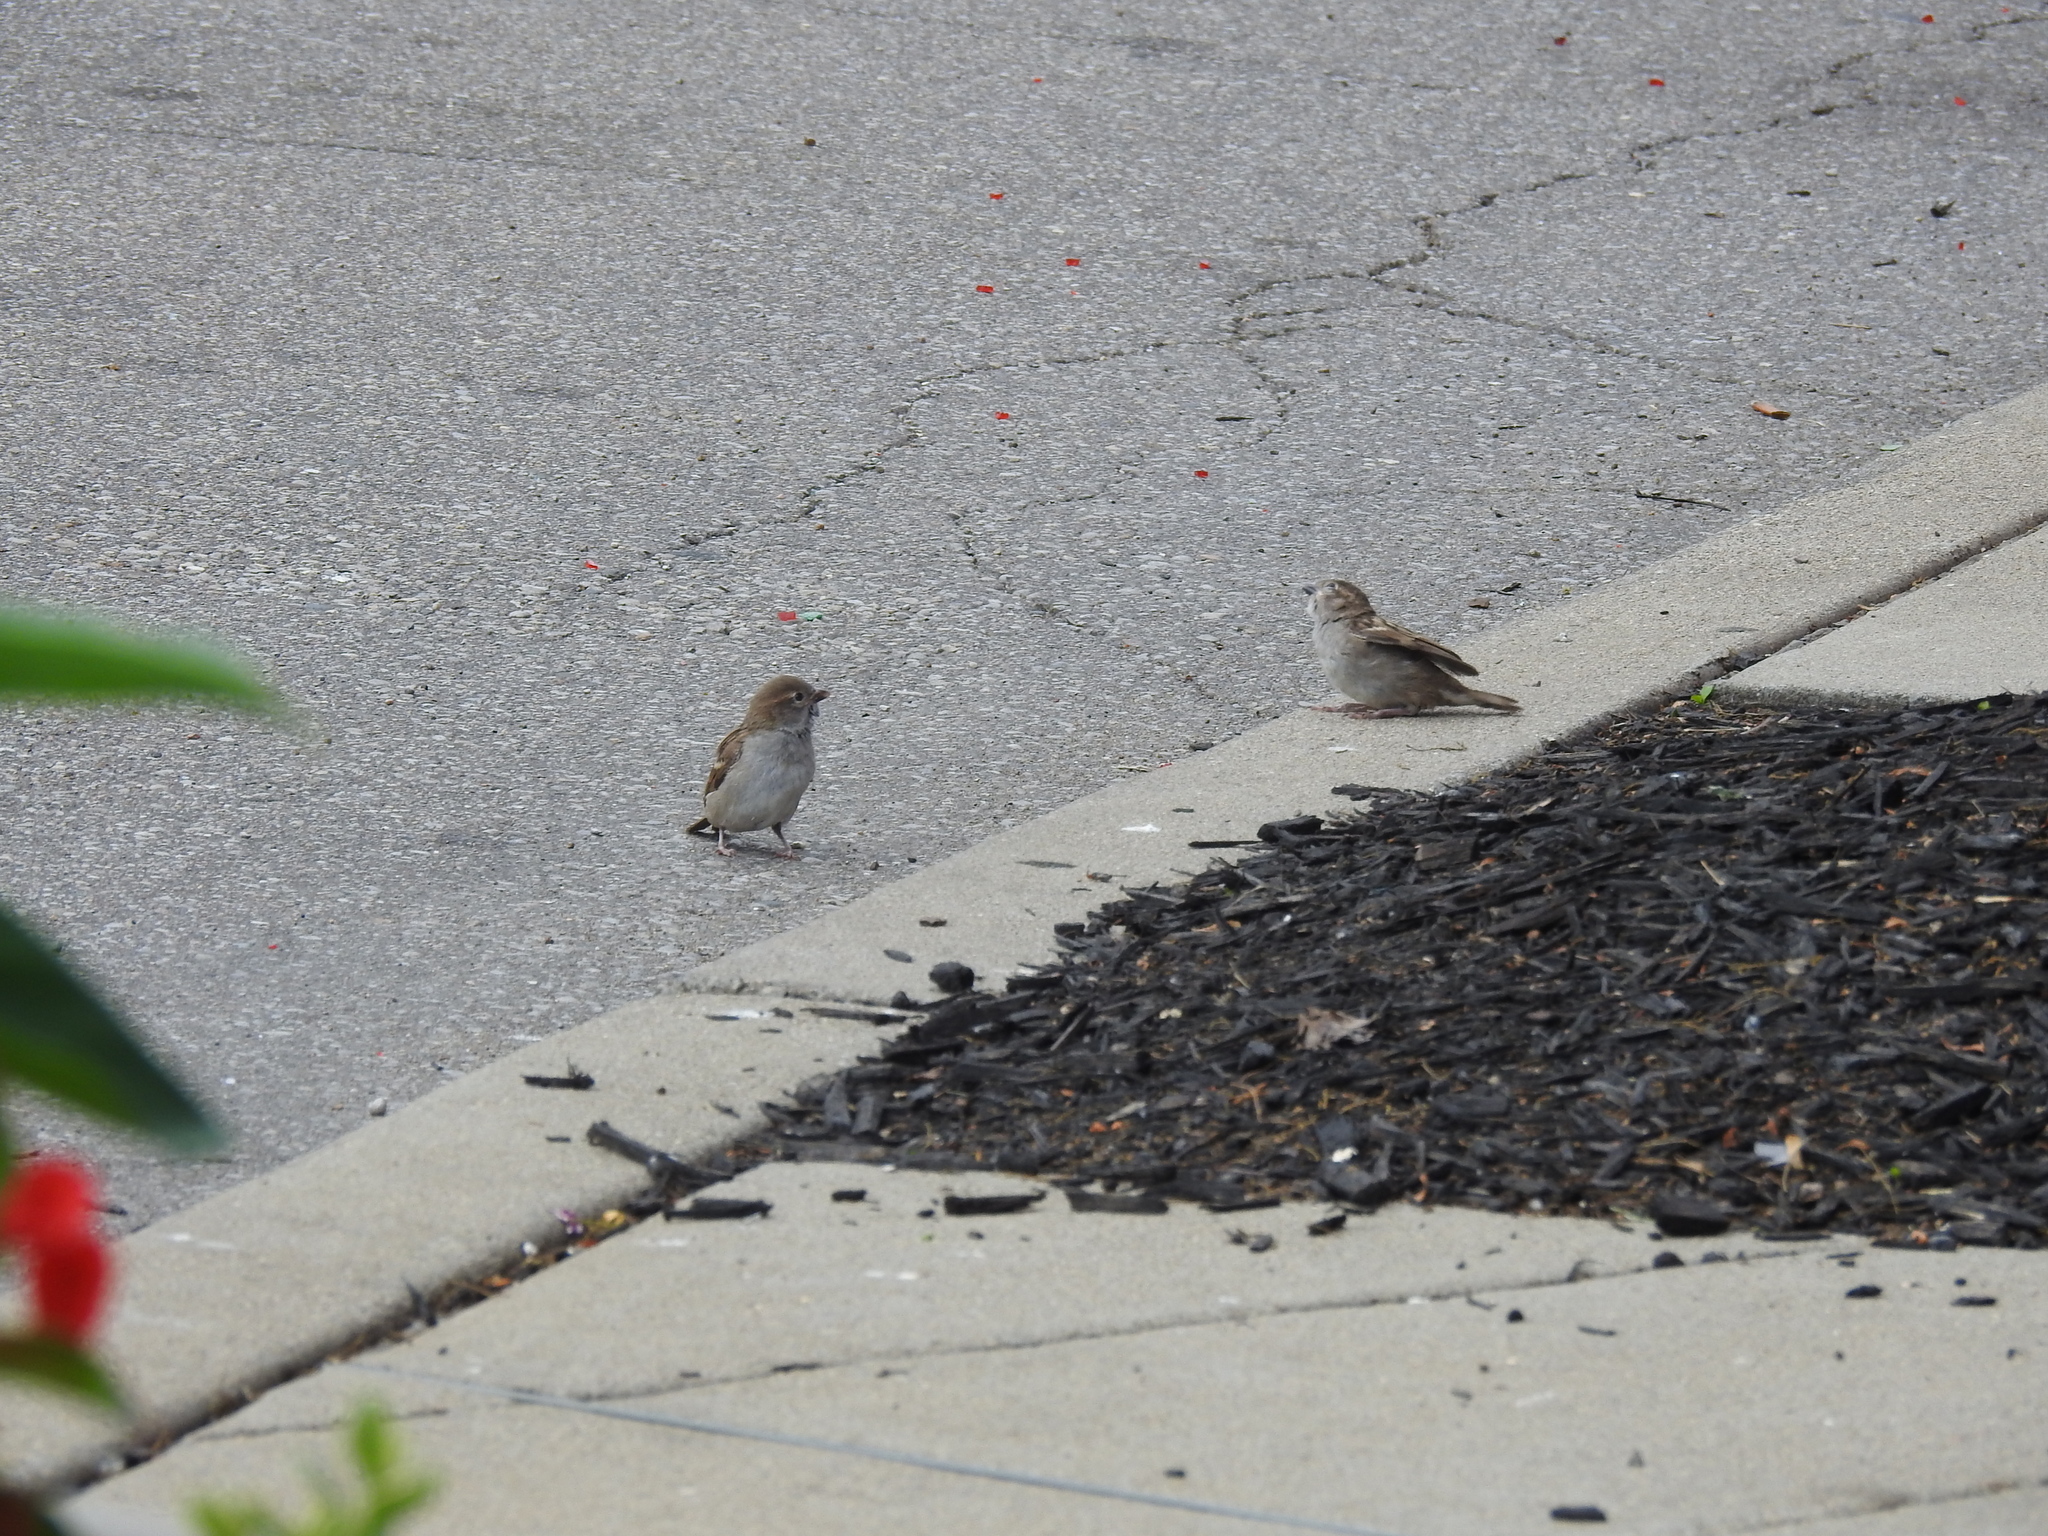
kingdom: Animalia
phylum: Chordata
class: Aves
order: Passeriformes
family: Passeridae
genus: Passer
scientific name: Passer domesticus
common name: House sparrow
